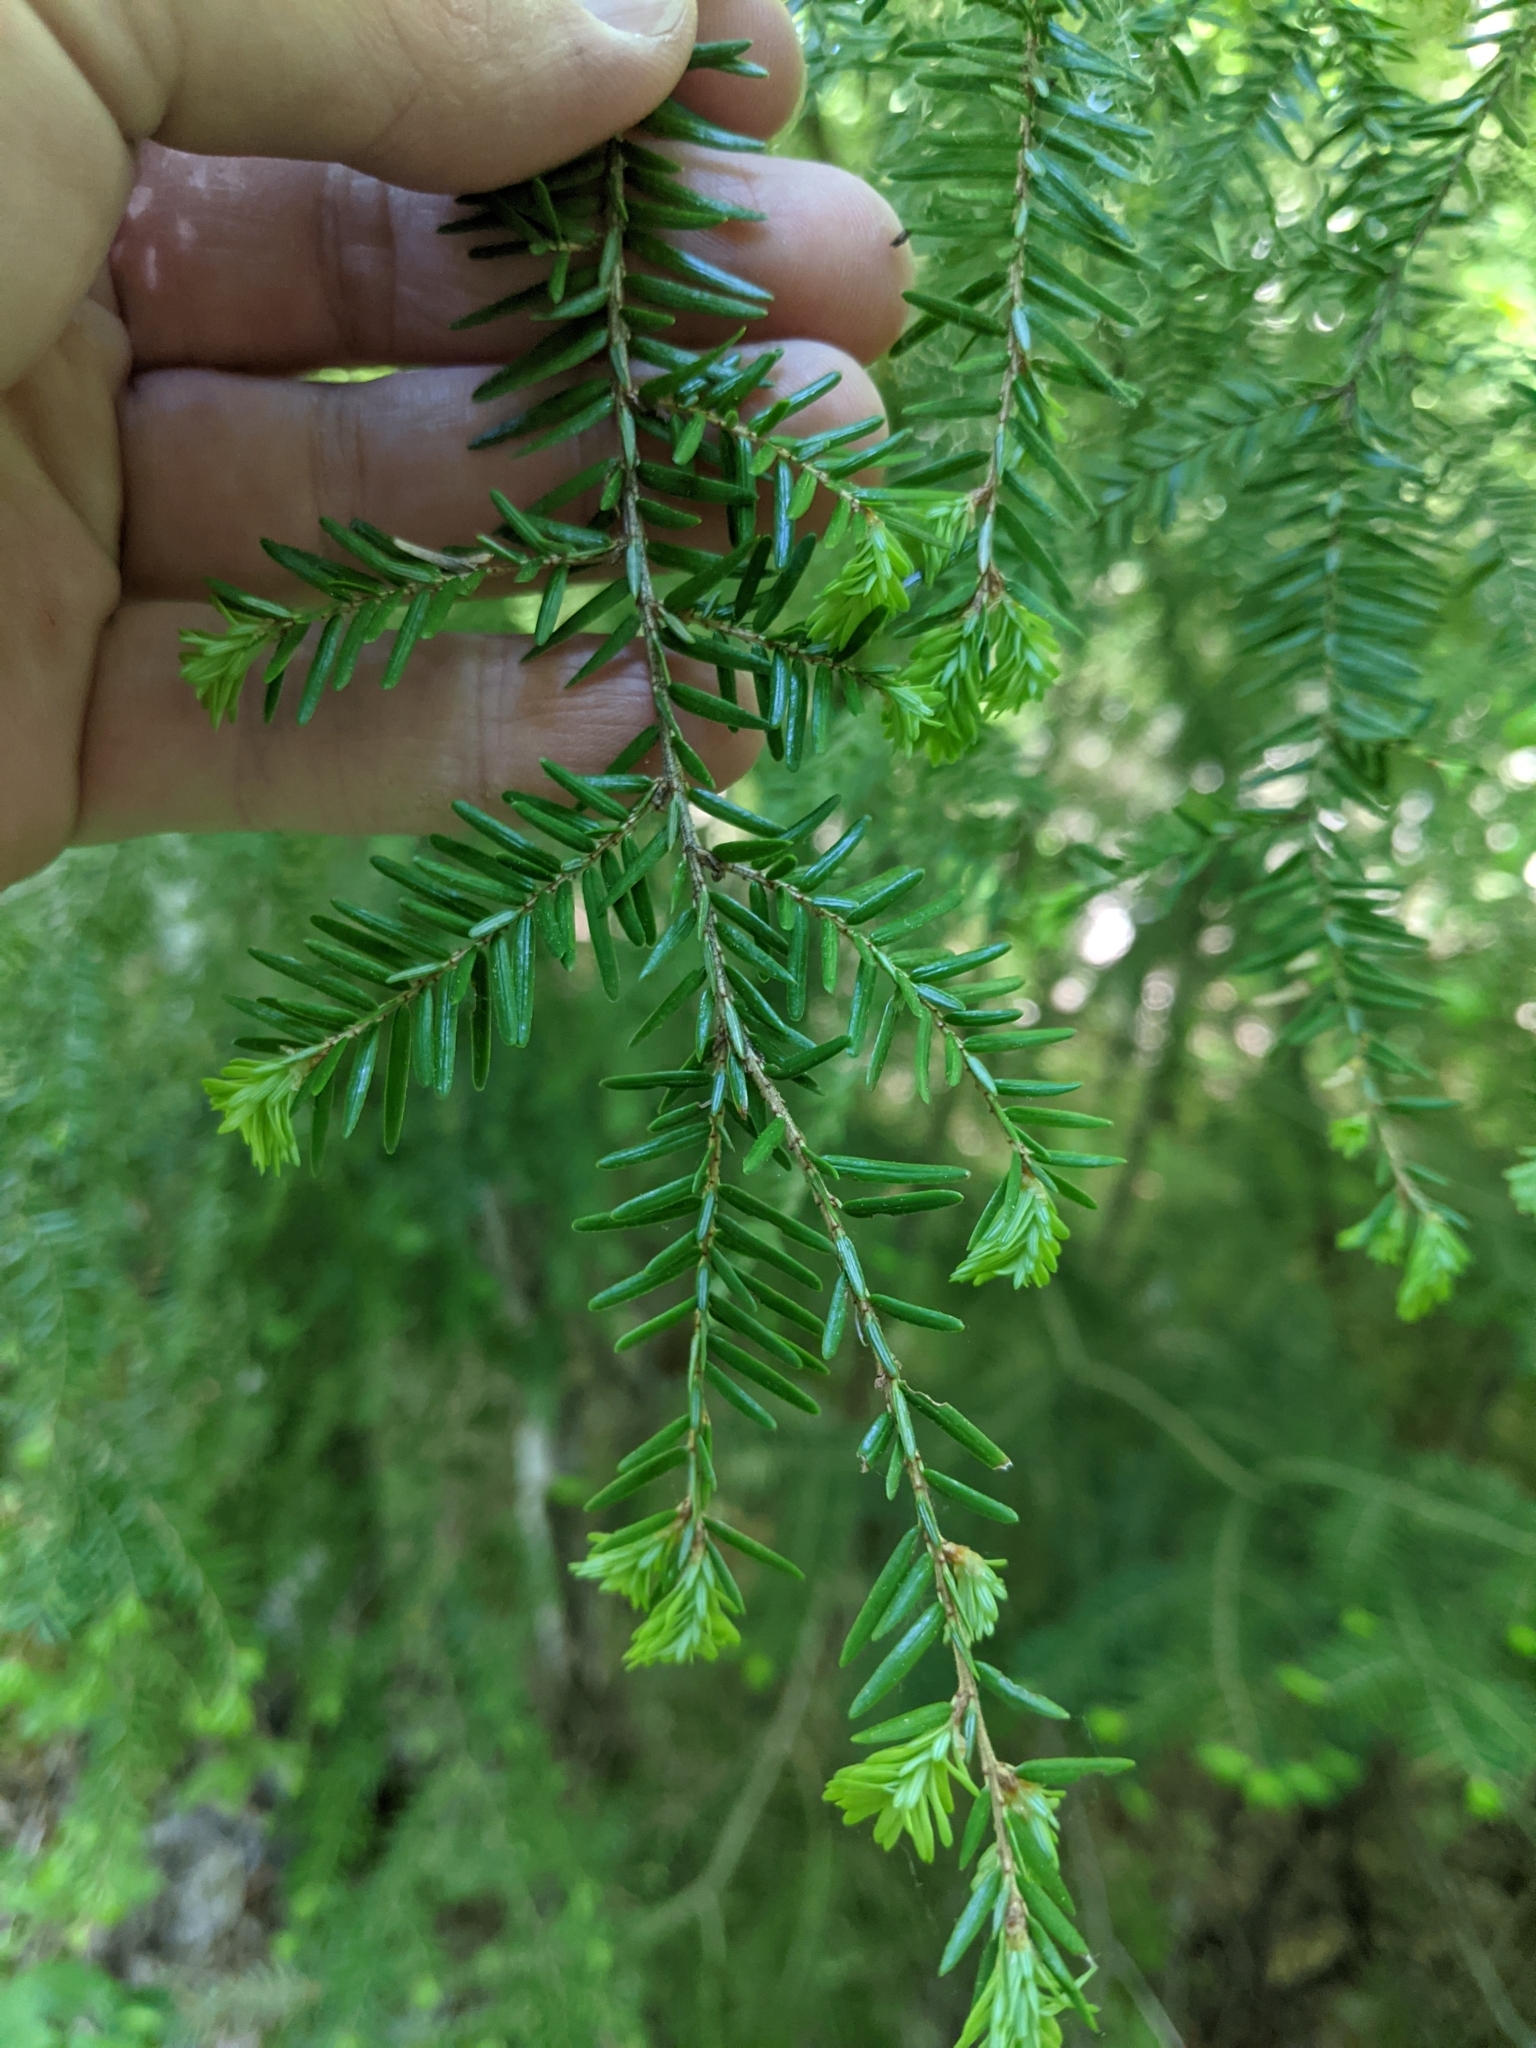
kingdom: Plantae
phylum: Tracheophyta
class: Pinopsida
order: Pinales
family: Pinaceae
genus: Tsuga
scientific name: Tsuga canadensis
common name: Eastern hemlock
